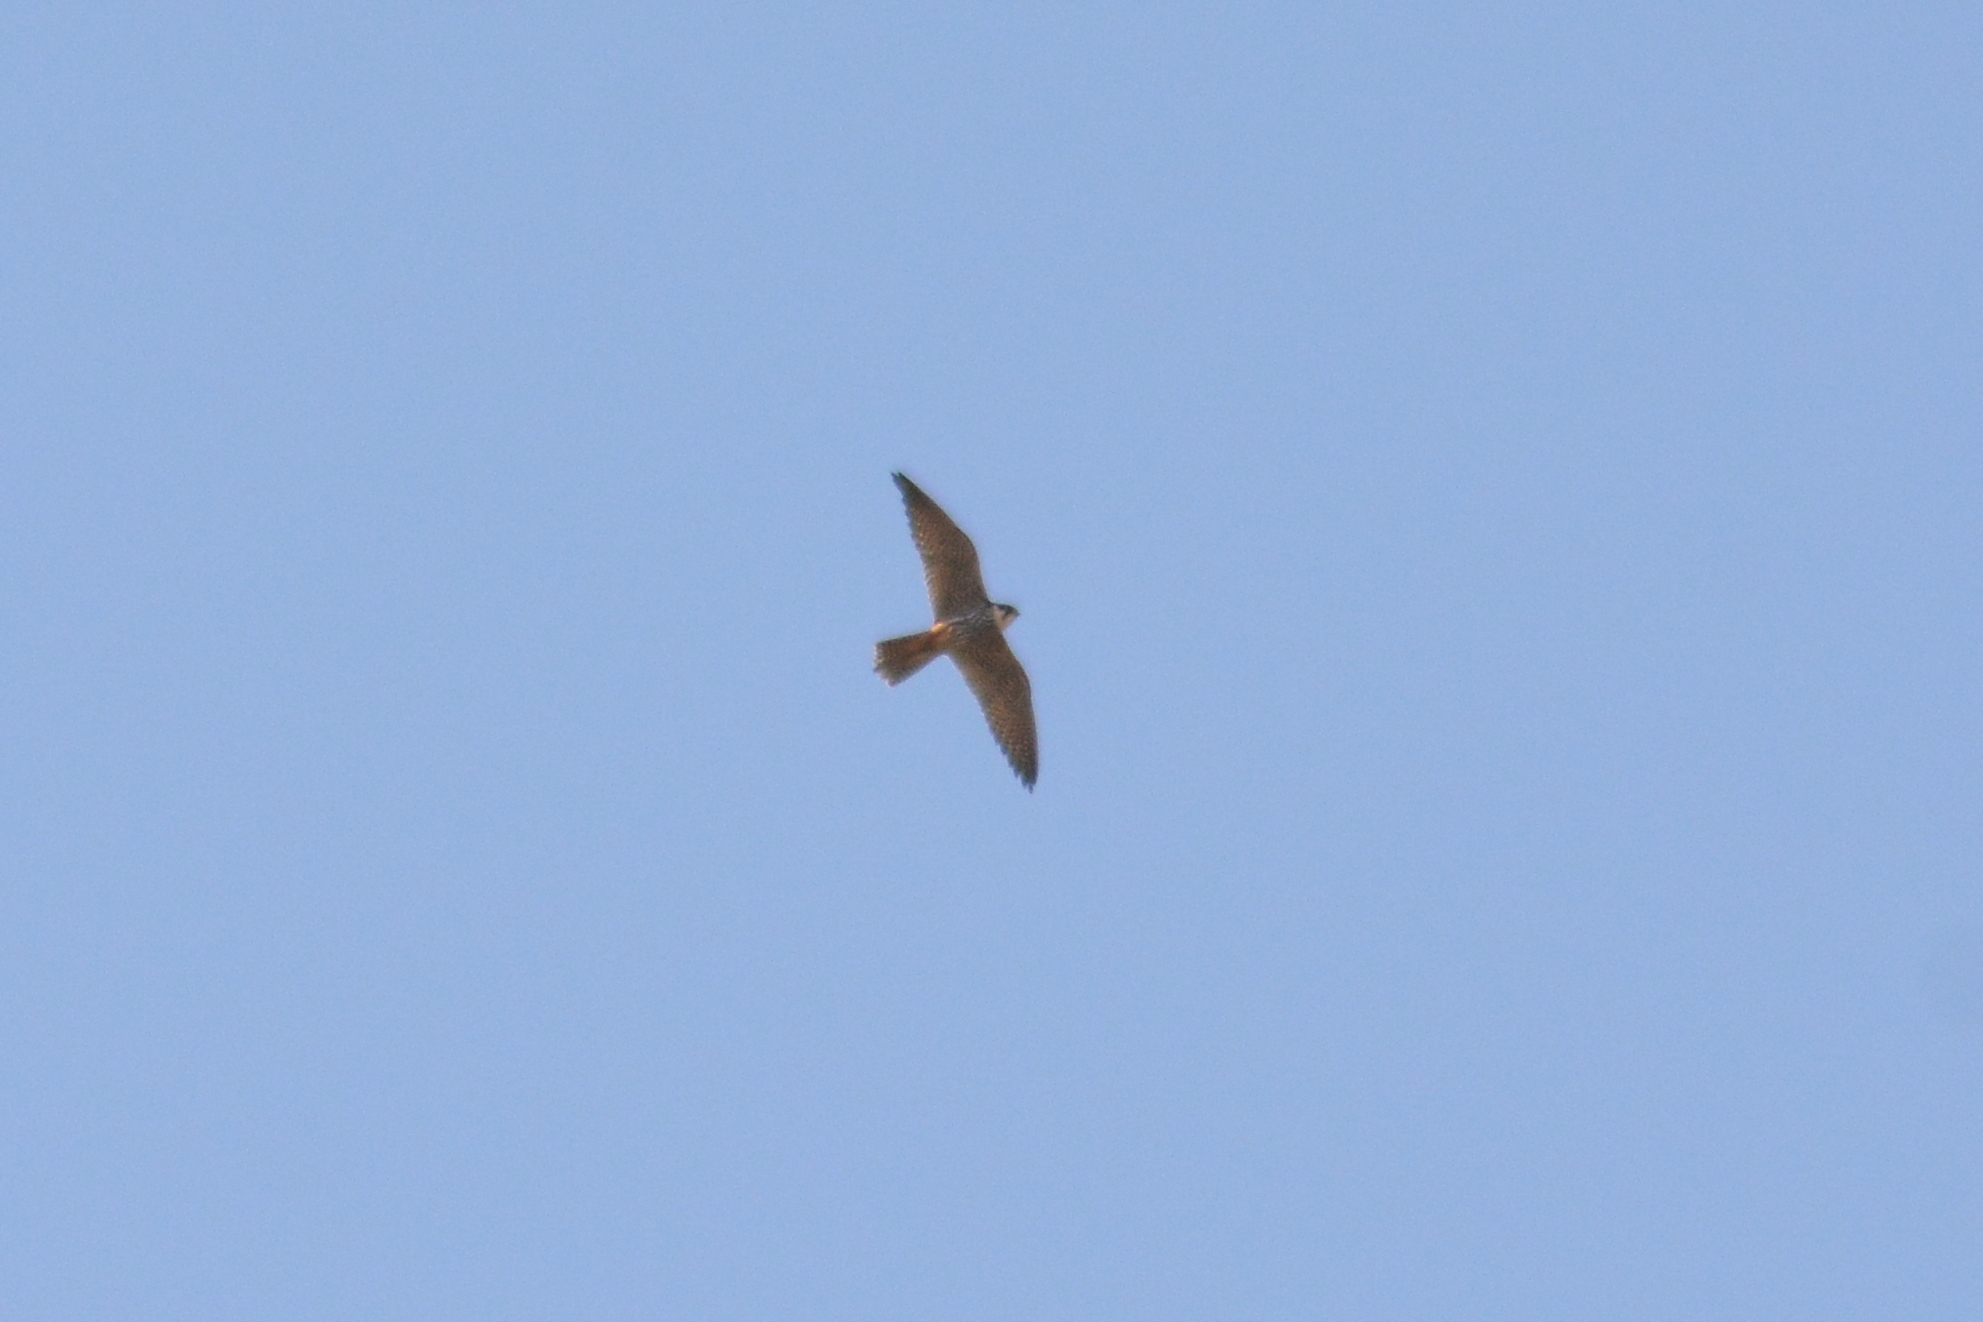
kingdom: Animalia
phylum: Chordata
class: Aves
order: Falconiformes
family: Falconidae
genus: Falco
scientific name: Falco subbuteo
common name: Eurasian hobby
